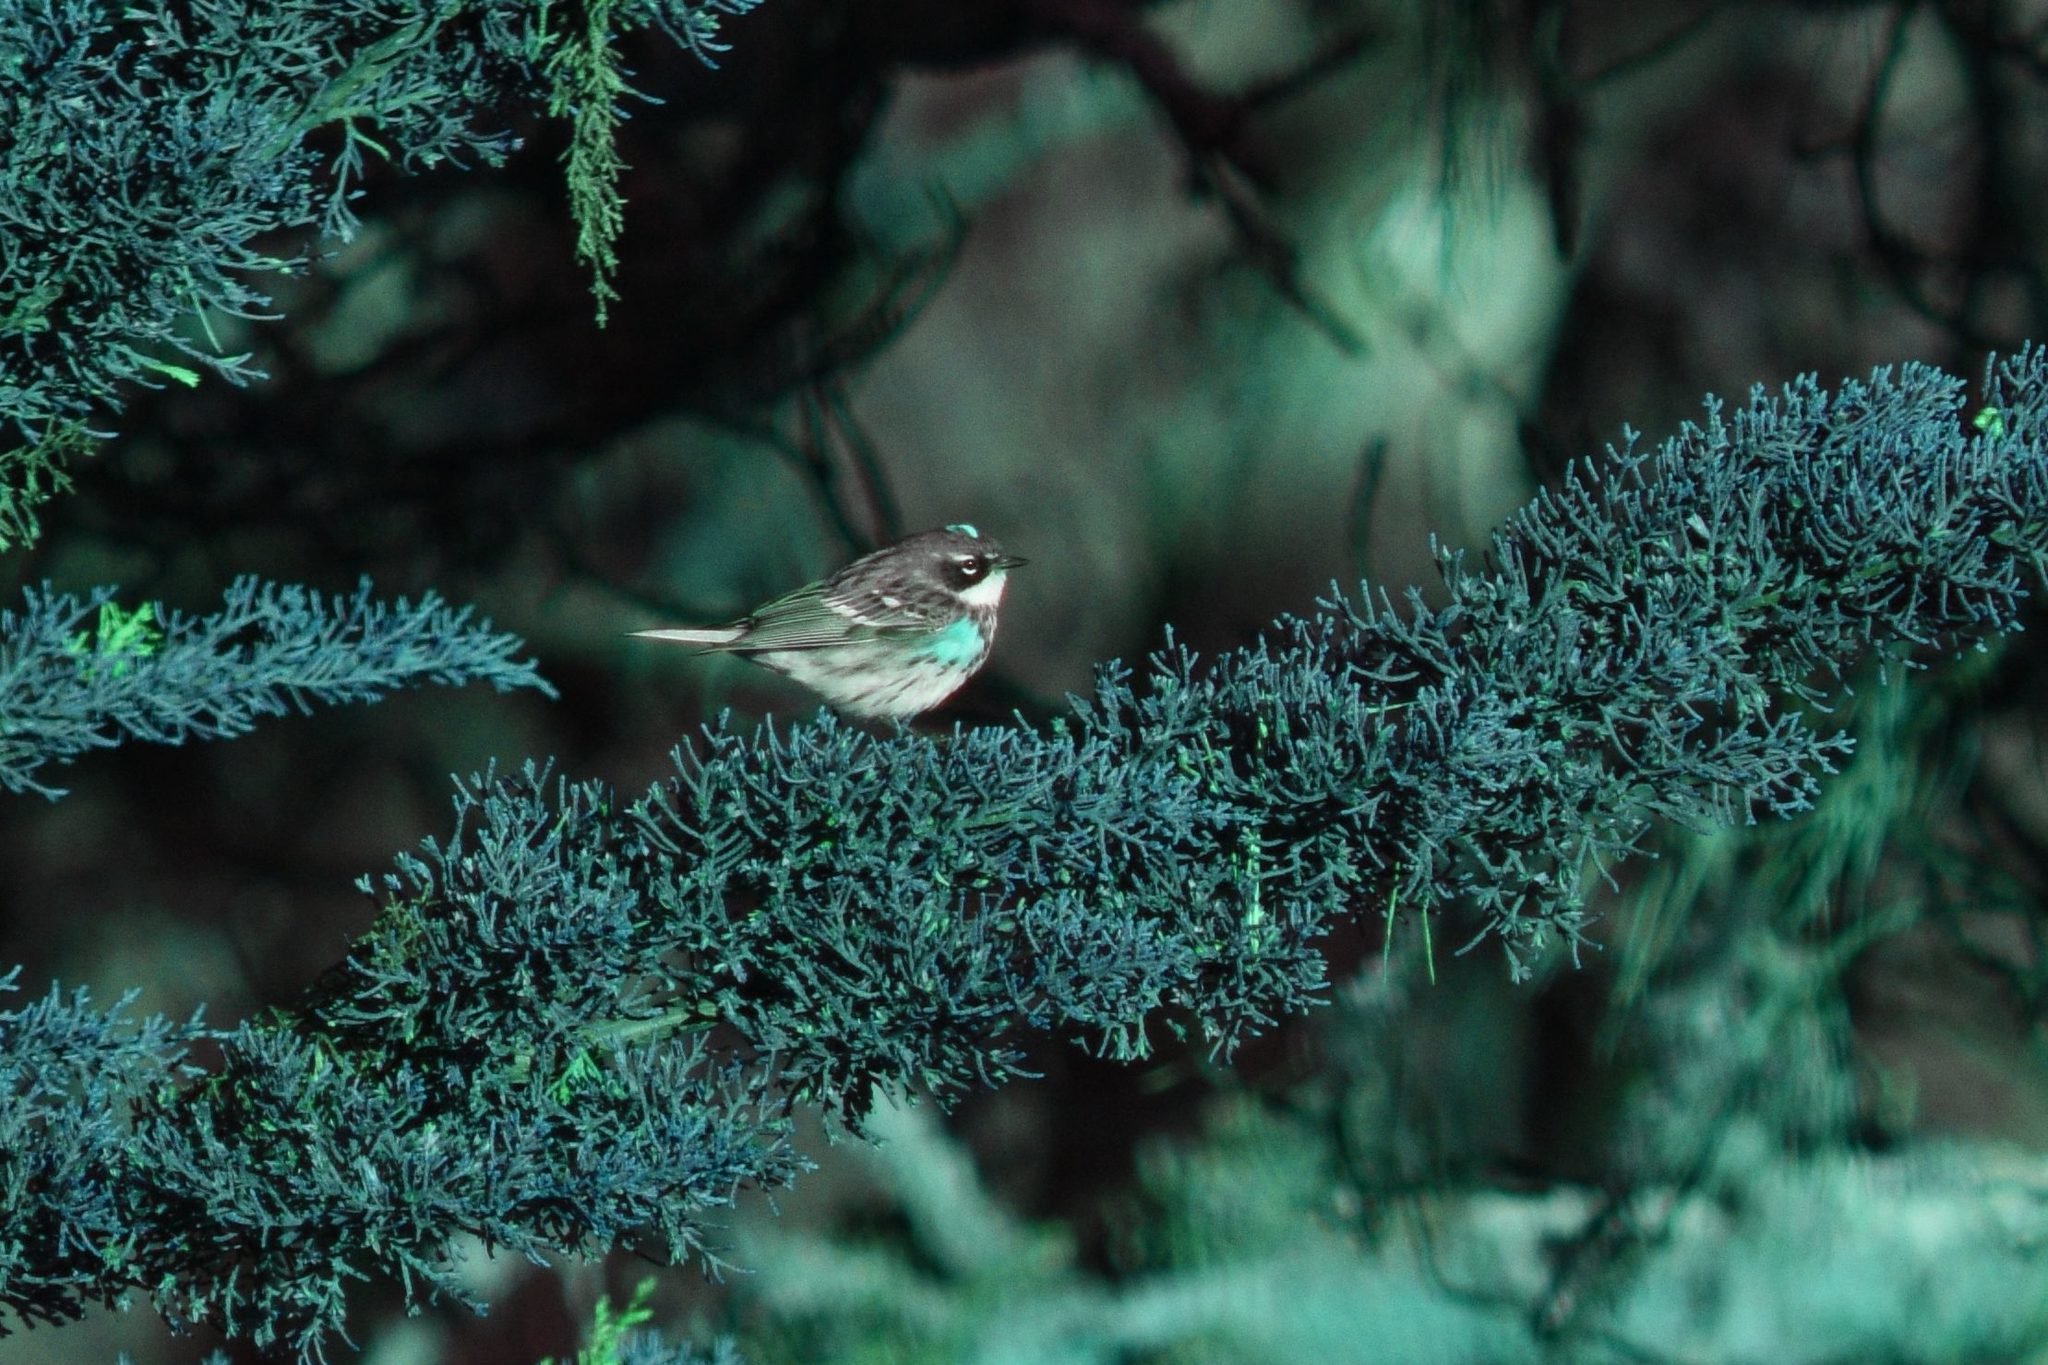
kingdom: Animalia
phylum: Chordata
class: Aves
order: Passeriformes
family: Parulidae
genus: Setophaga
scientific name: Setophaga coronata
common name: Myrtle warbler
